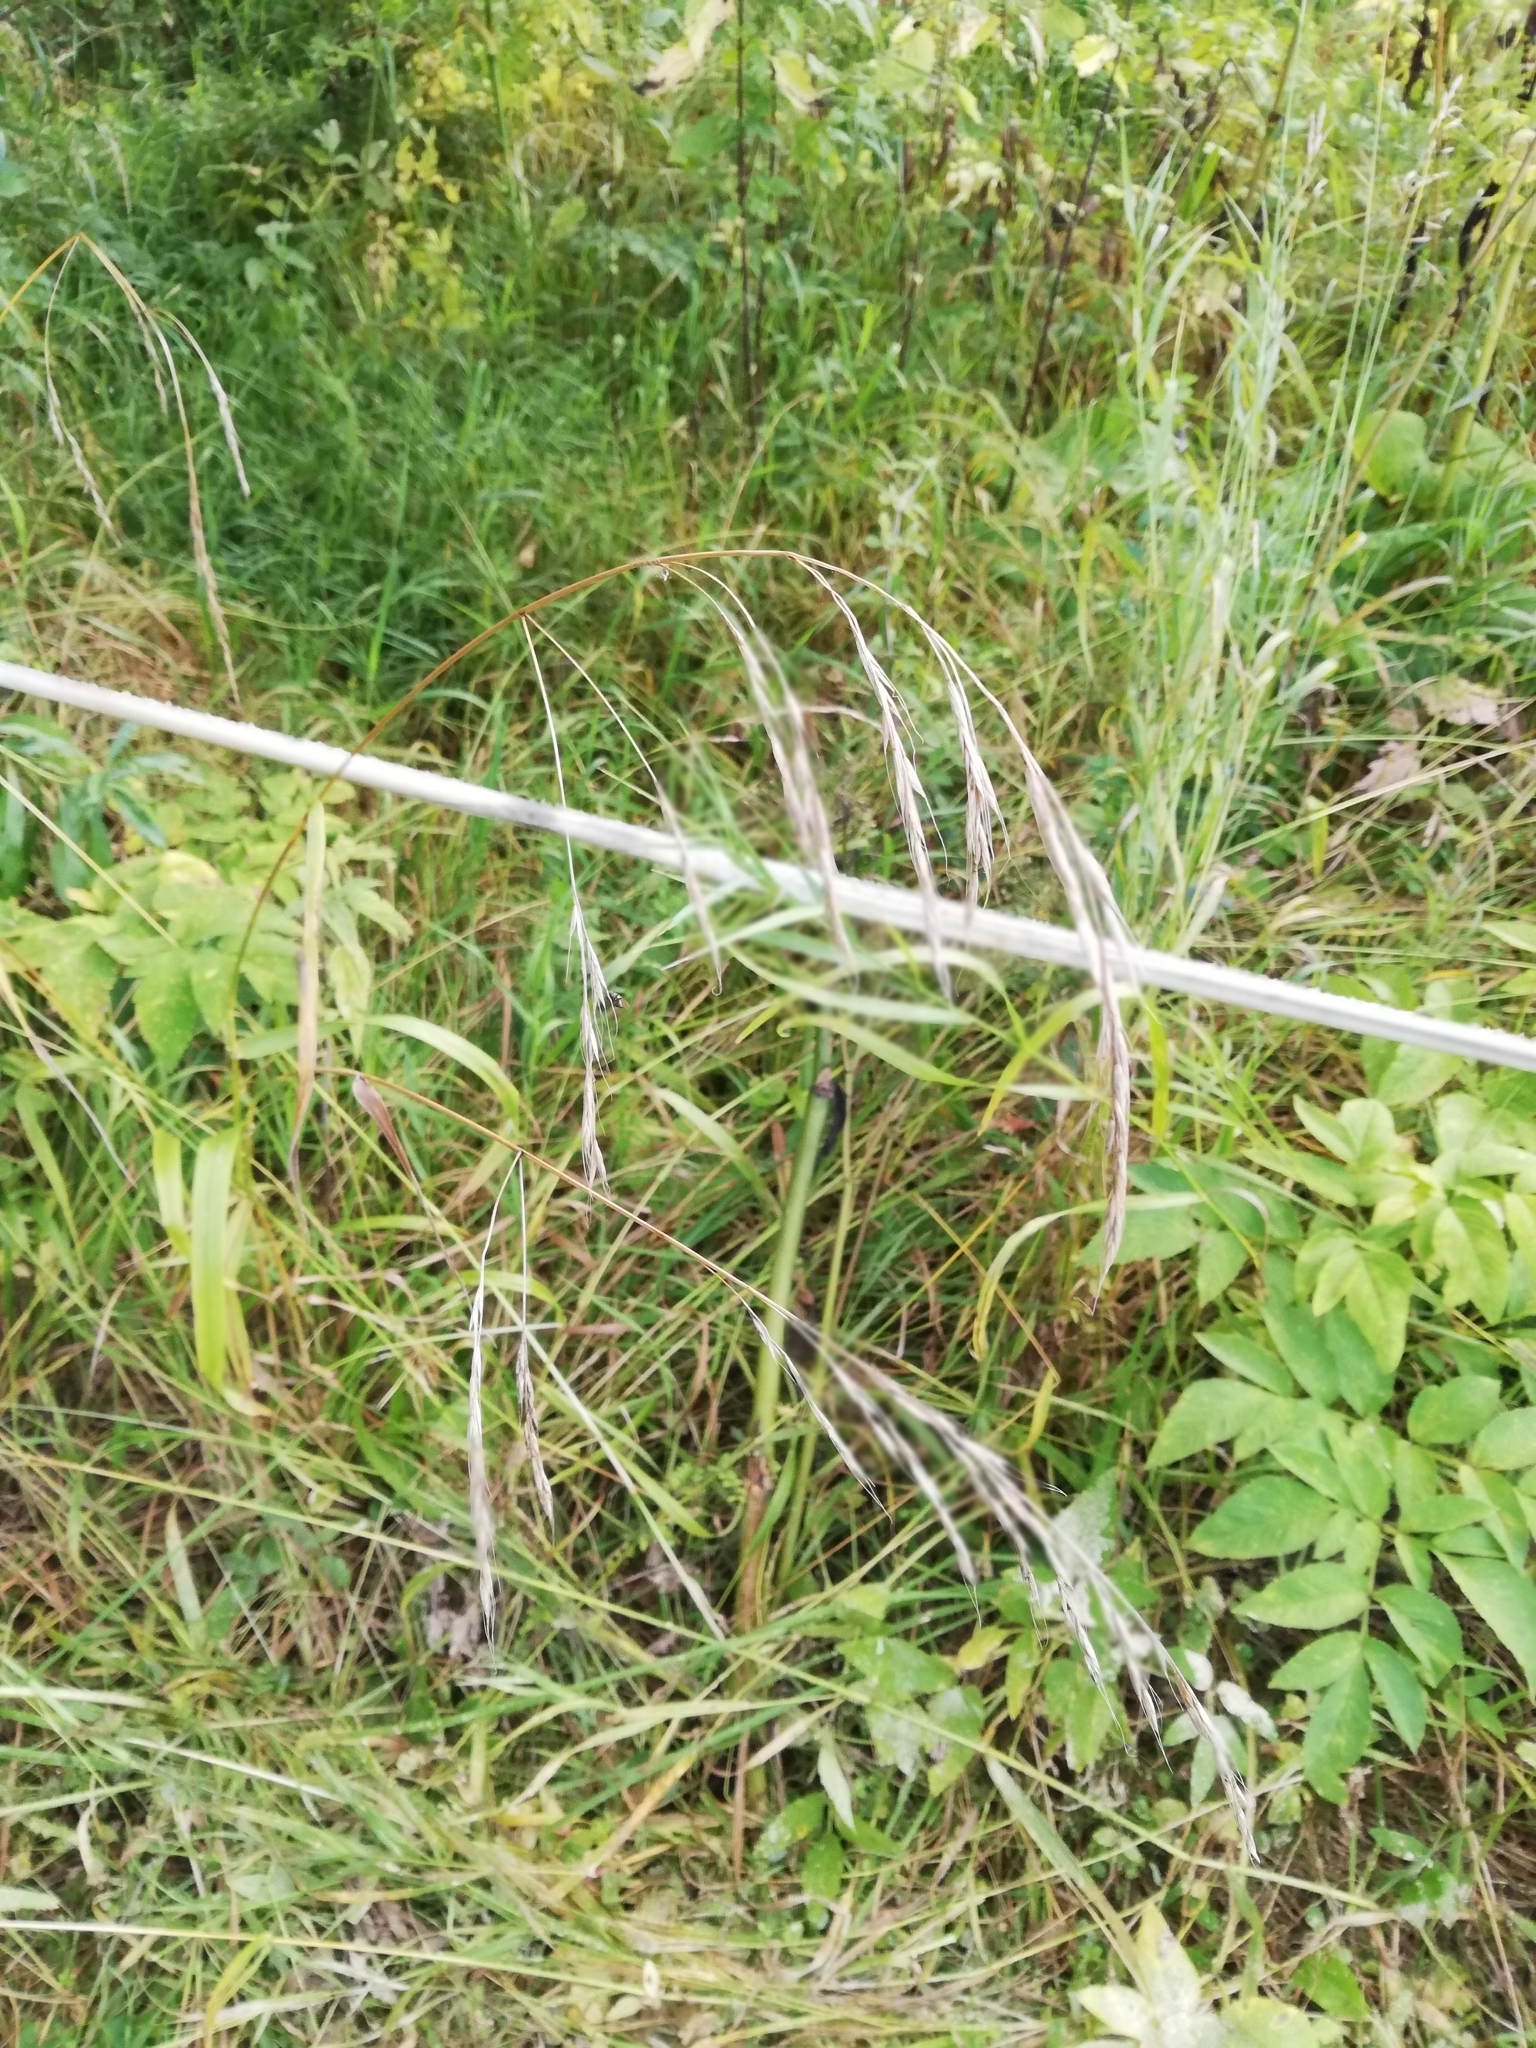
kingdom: Plantae
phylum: Tracheophyta
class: Liliopsida
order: Poales
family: Poaceae
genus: Lolium
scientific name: Lolium giganteum
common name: Giant fescue
